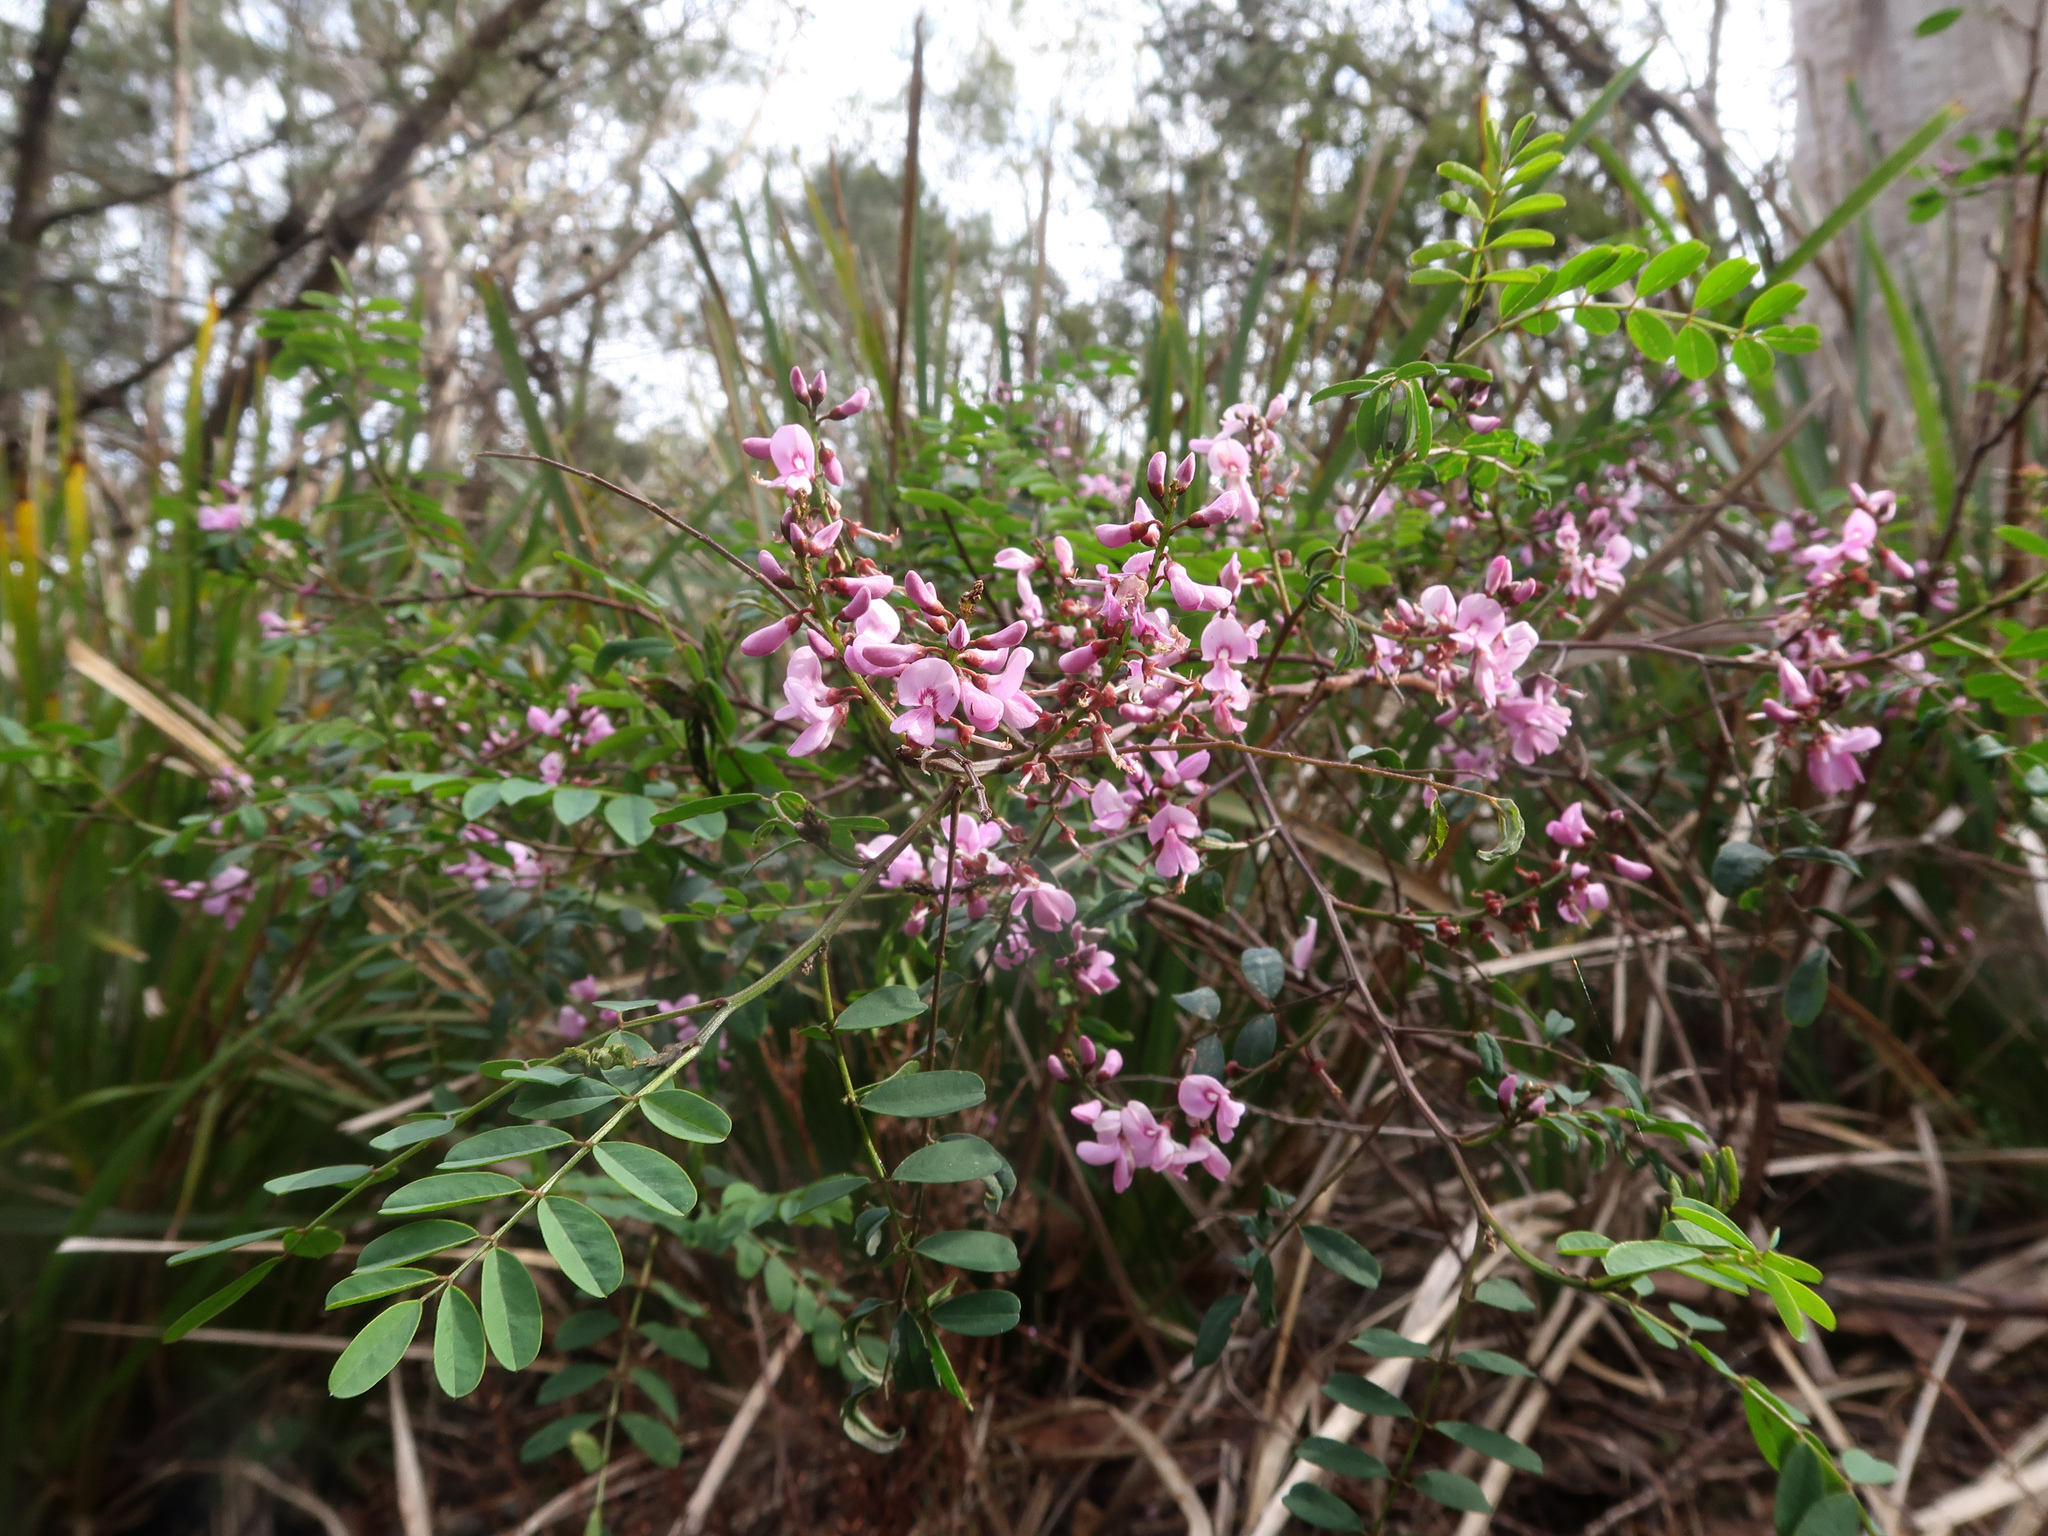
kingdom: Plantae
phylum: Tracheophyta
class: Magnoliopsida
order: Fabales
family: Fabaceae
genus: Indigofera
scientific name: Indigofera australis
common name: Australian indigo
